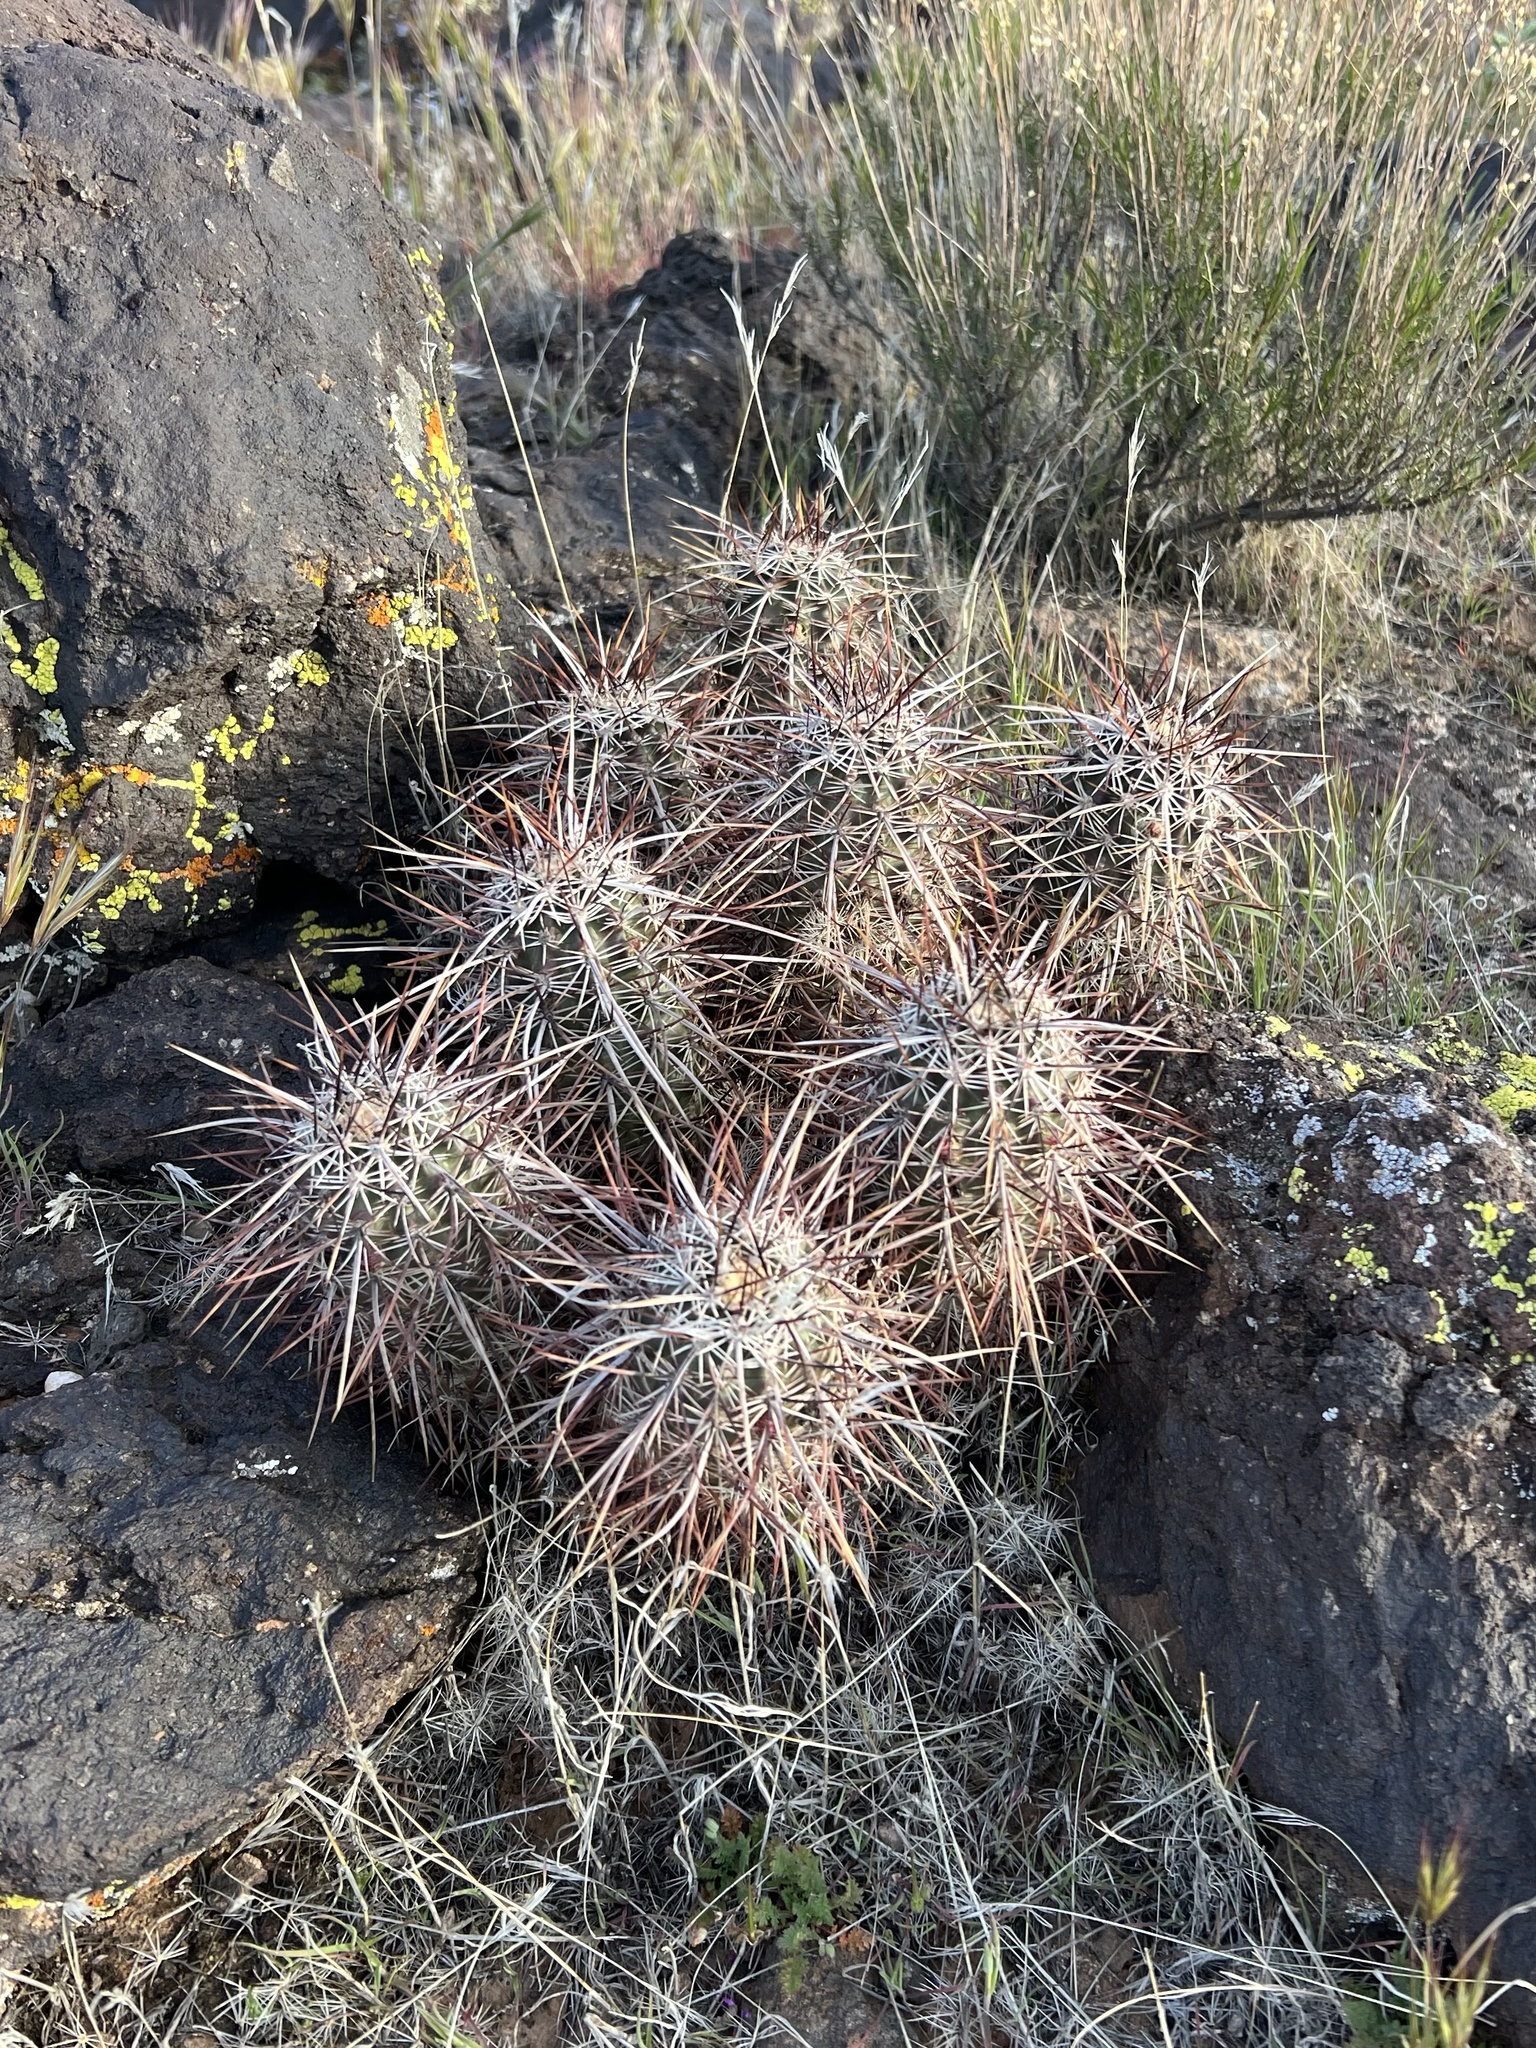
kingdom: Plantae
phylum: Tracheophyta
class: Magnoliopsida
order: Caryophyllales
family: Cactaceae
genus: Echinocereus
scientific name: Echinocereus relictus
